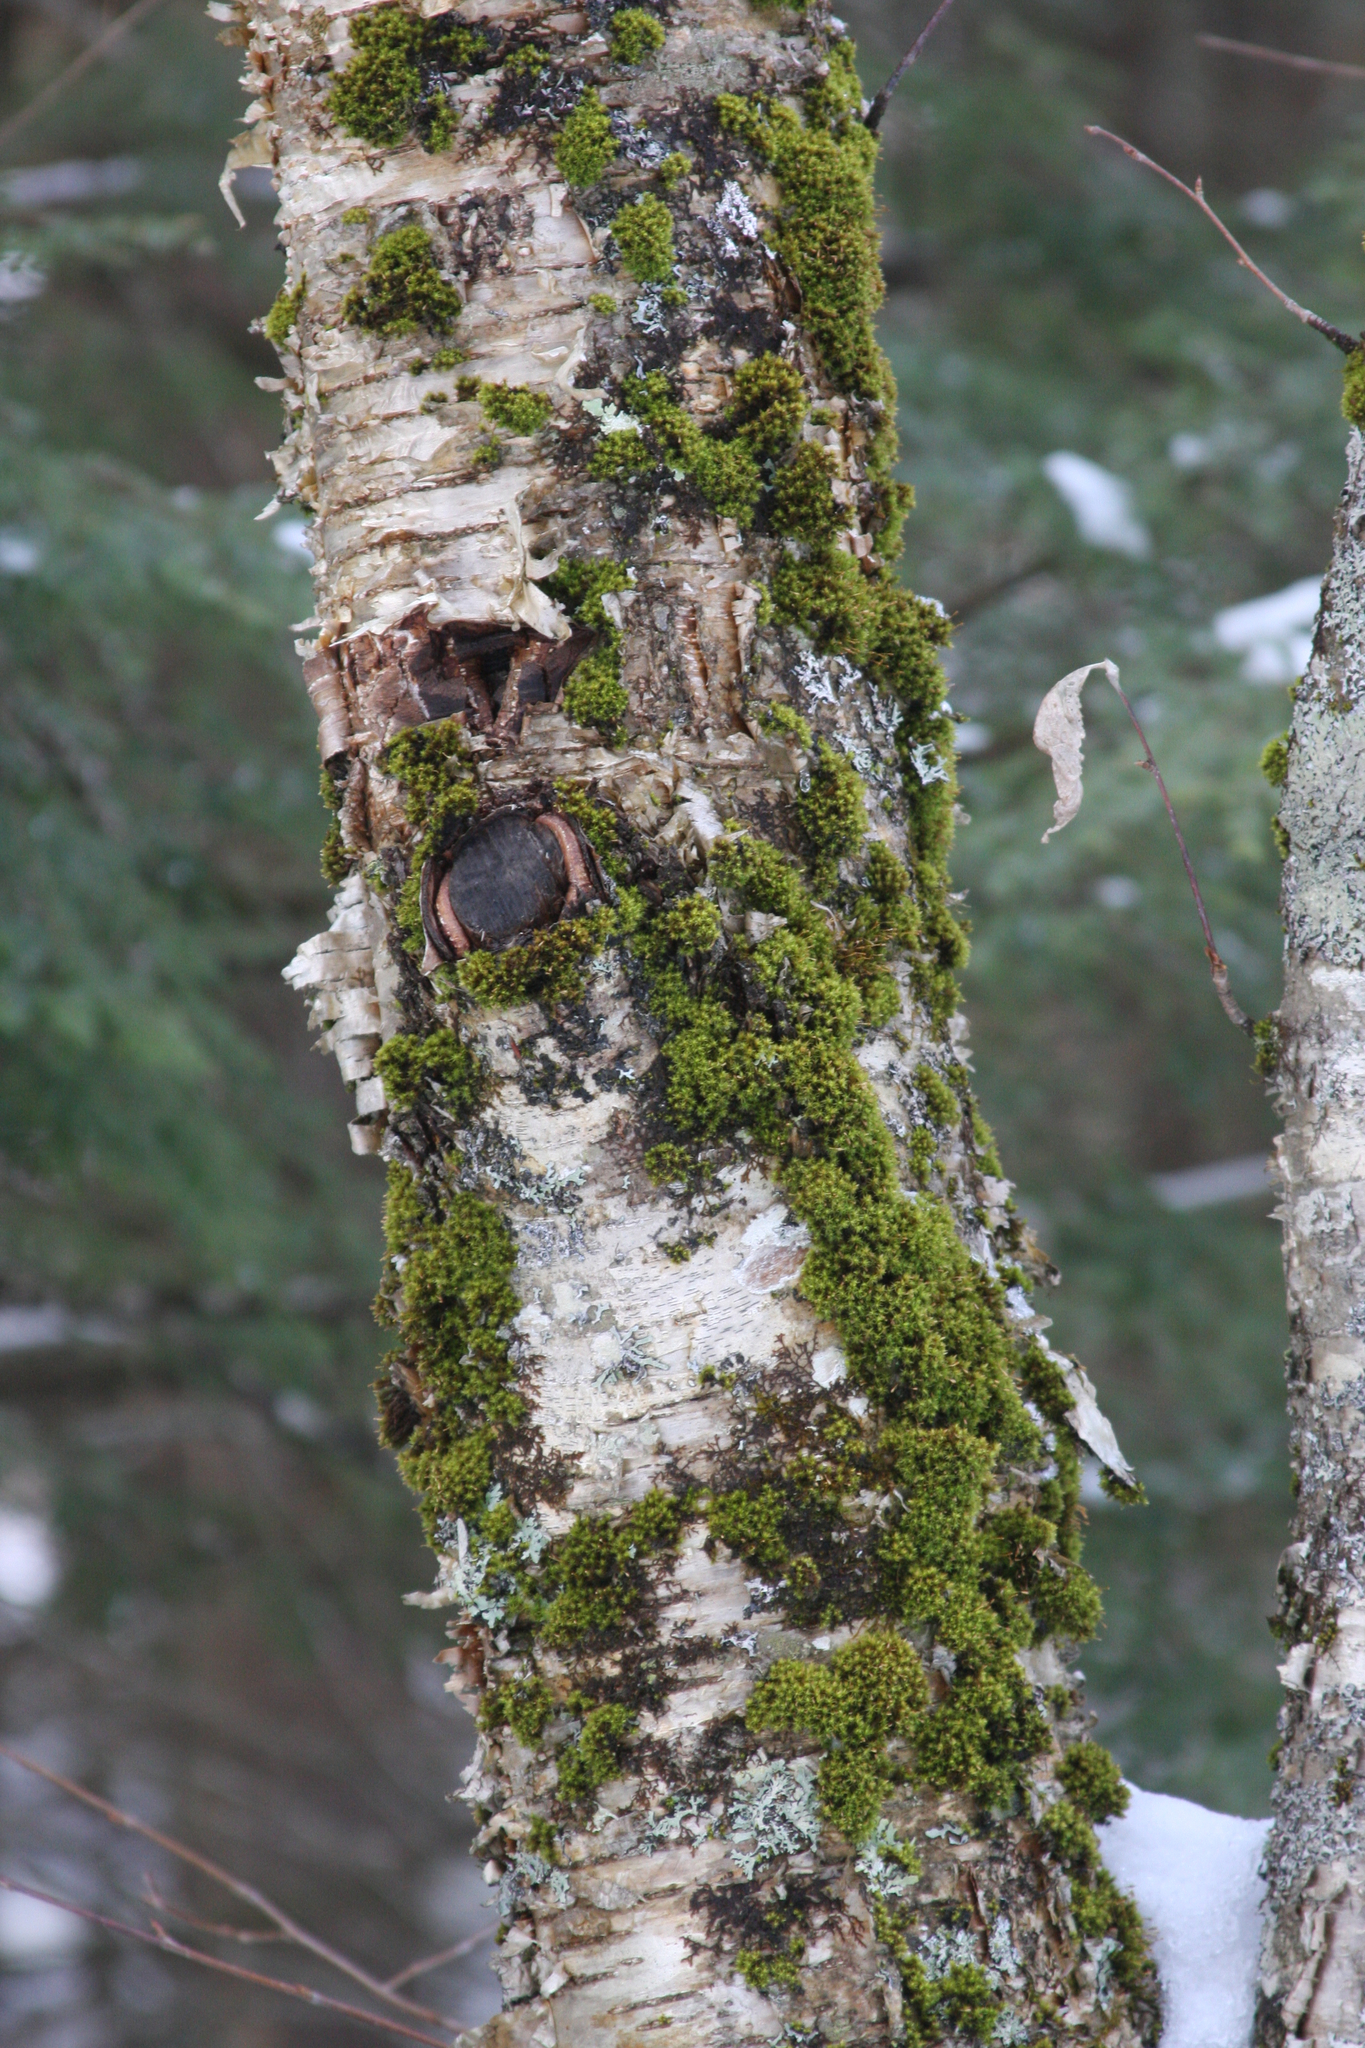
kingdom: Plantae
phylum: Bryophyta
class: Bryopsida
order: Orthotrichales
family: Orthotrichaceae
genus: Ulota
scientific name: Ulota crispa
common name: Crisped pincushion moss
